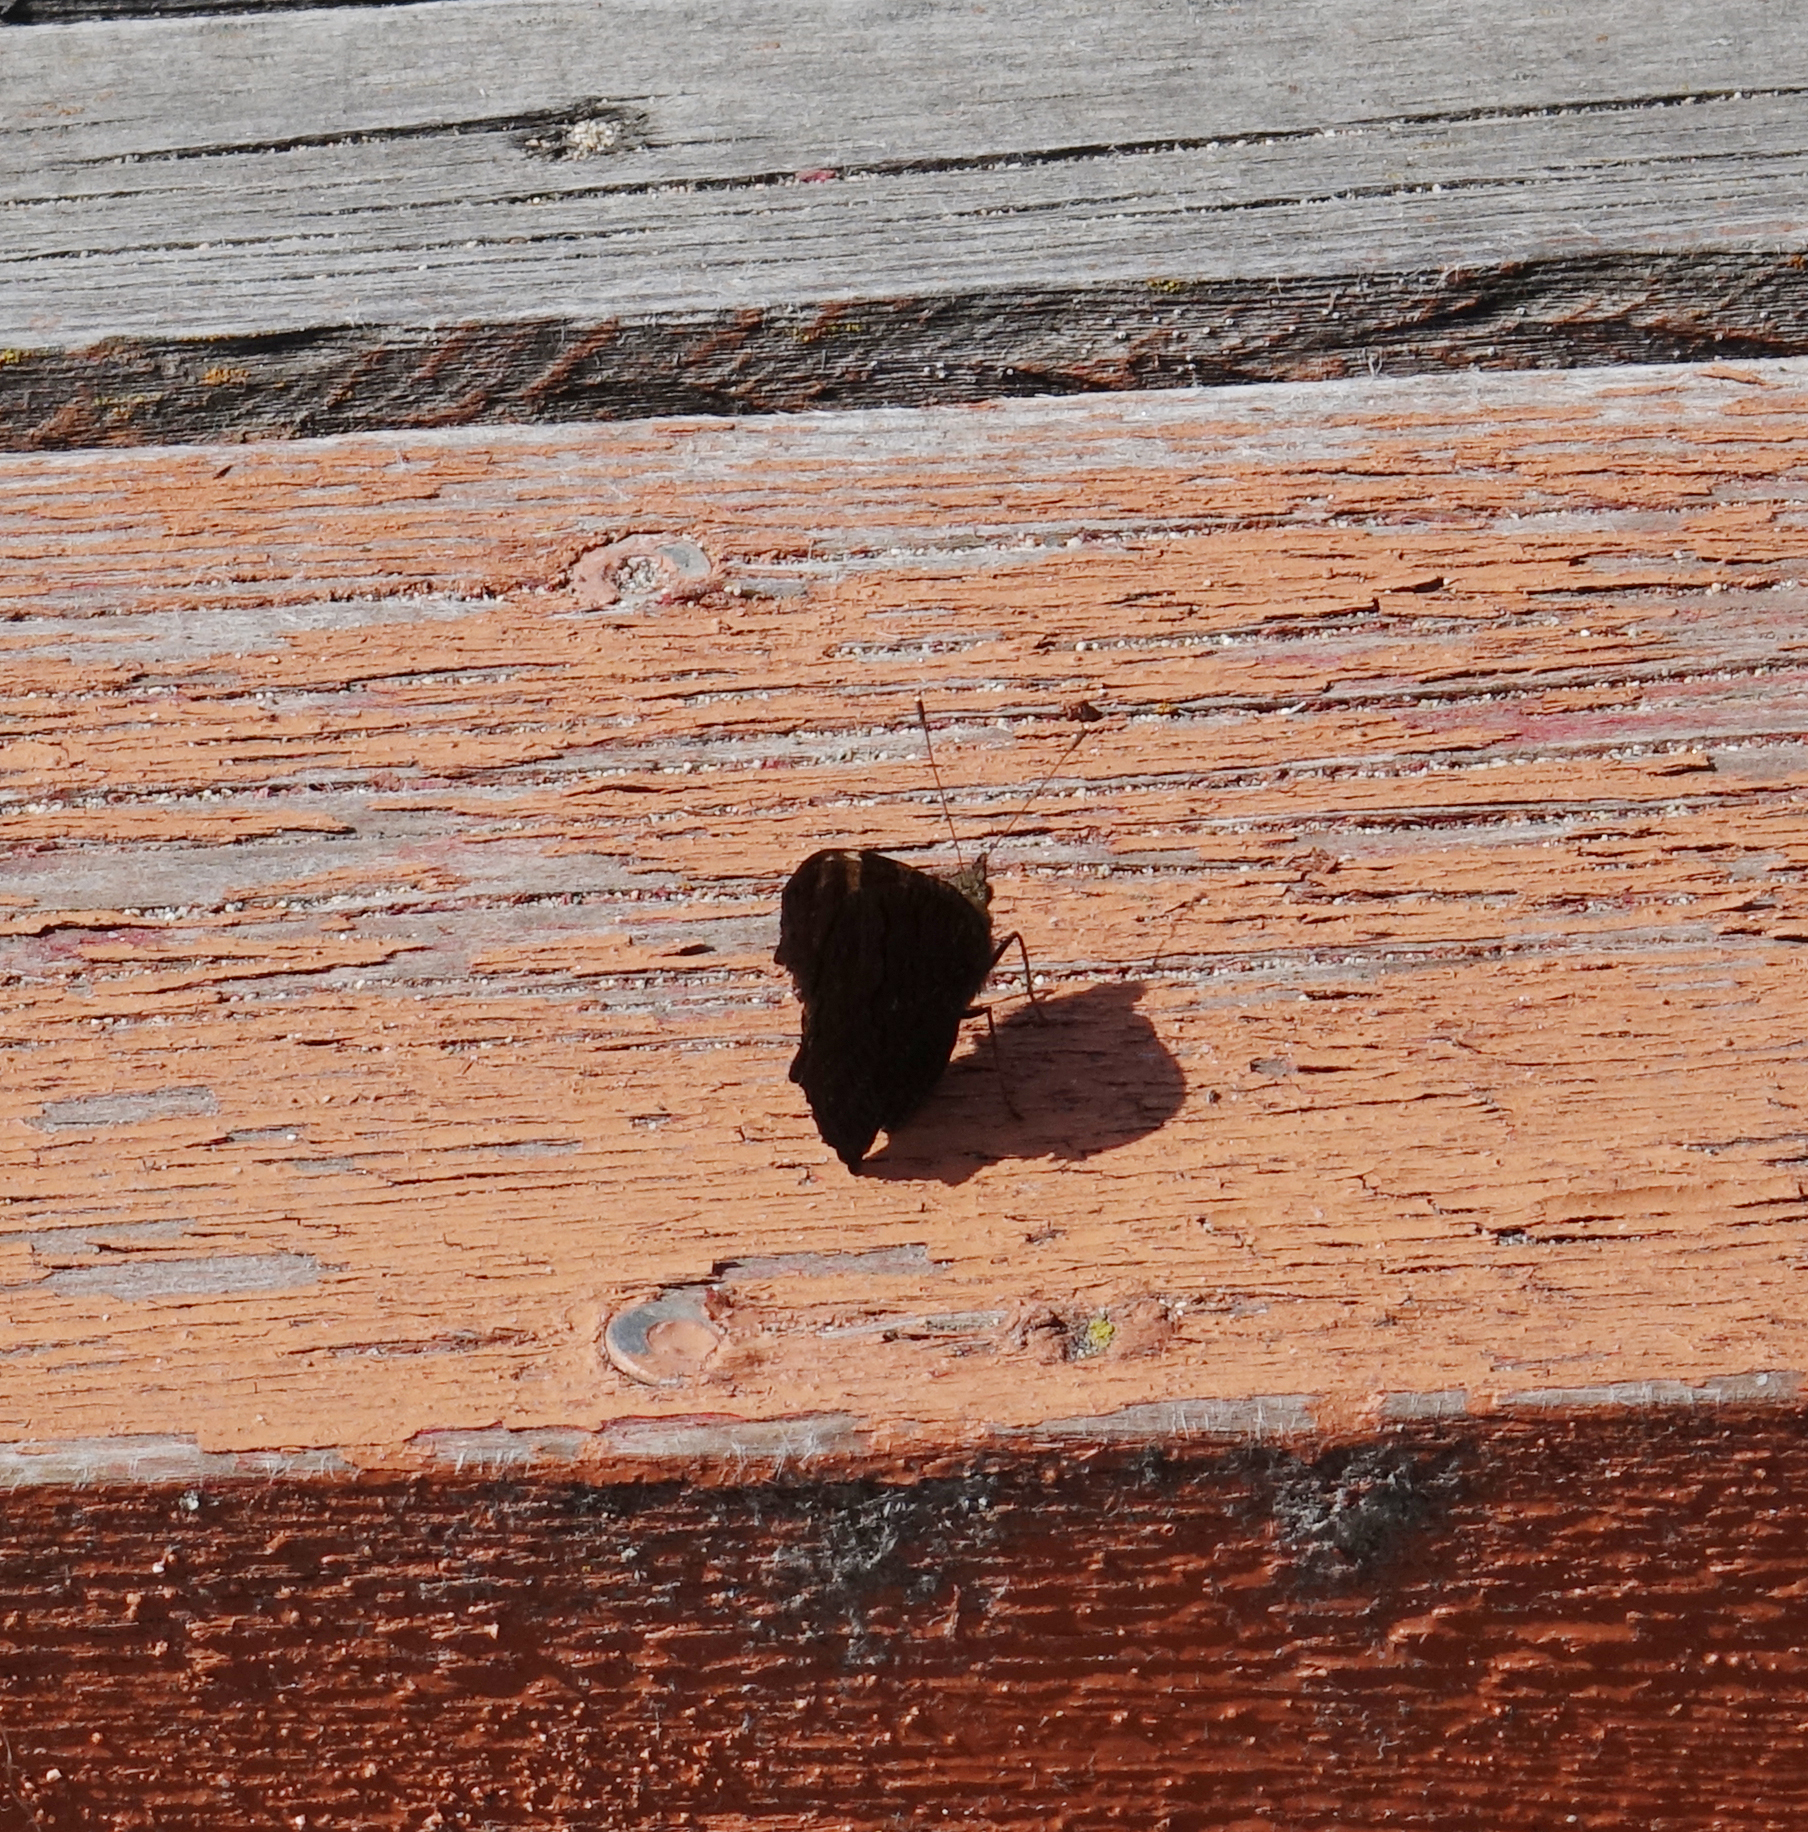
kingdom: Animalia
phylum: Arthropoda
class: Insecta
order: Lepidoptera
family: Nymphalidae
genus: Aglais
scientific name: Aglais io
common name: Peacock
